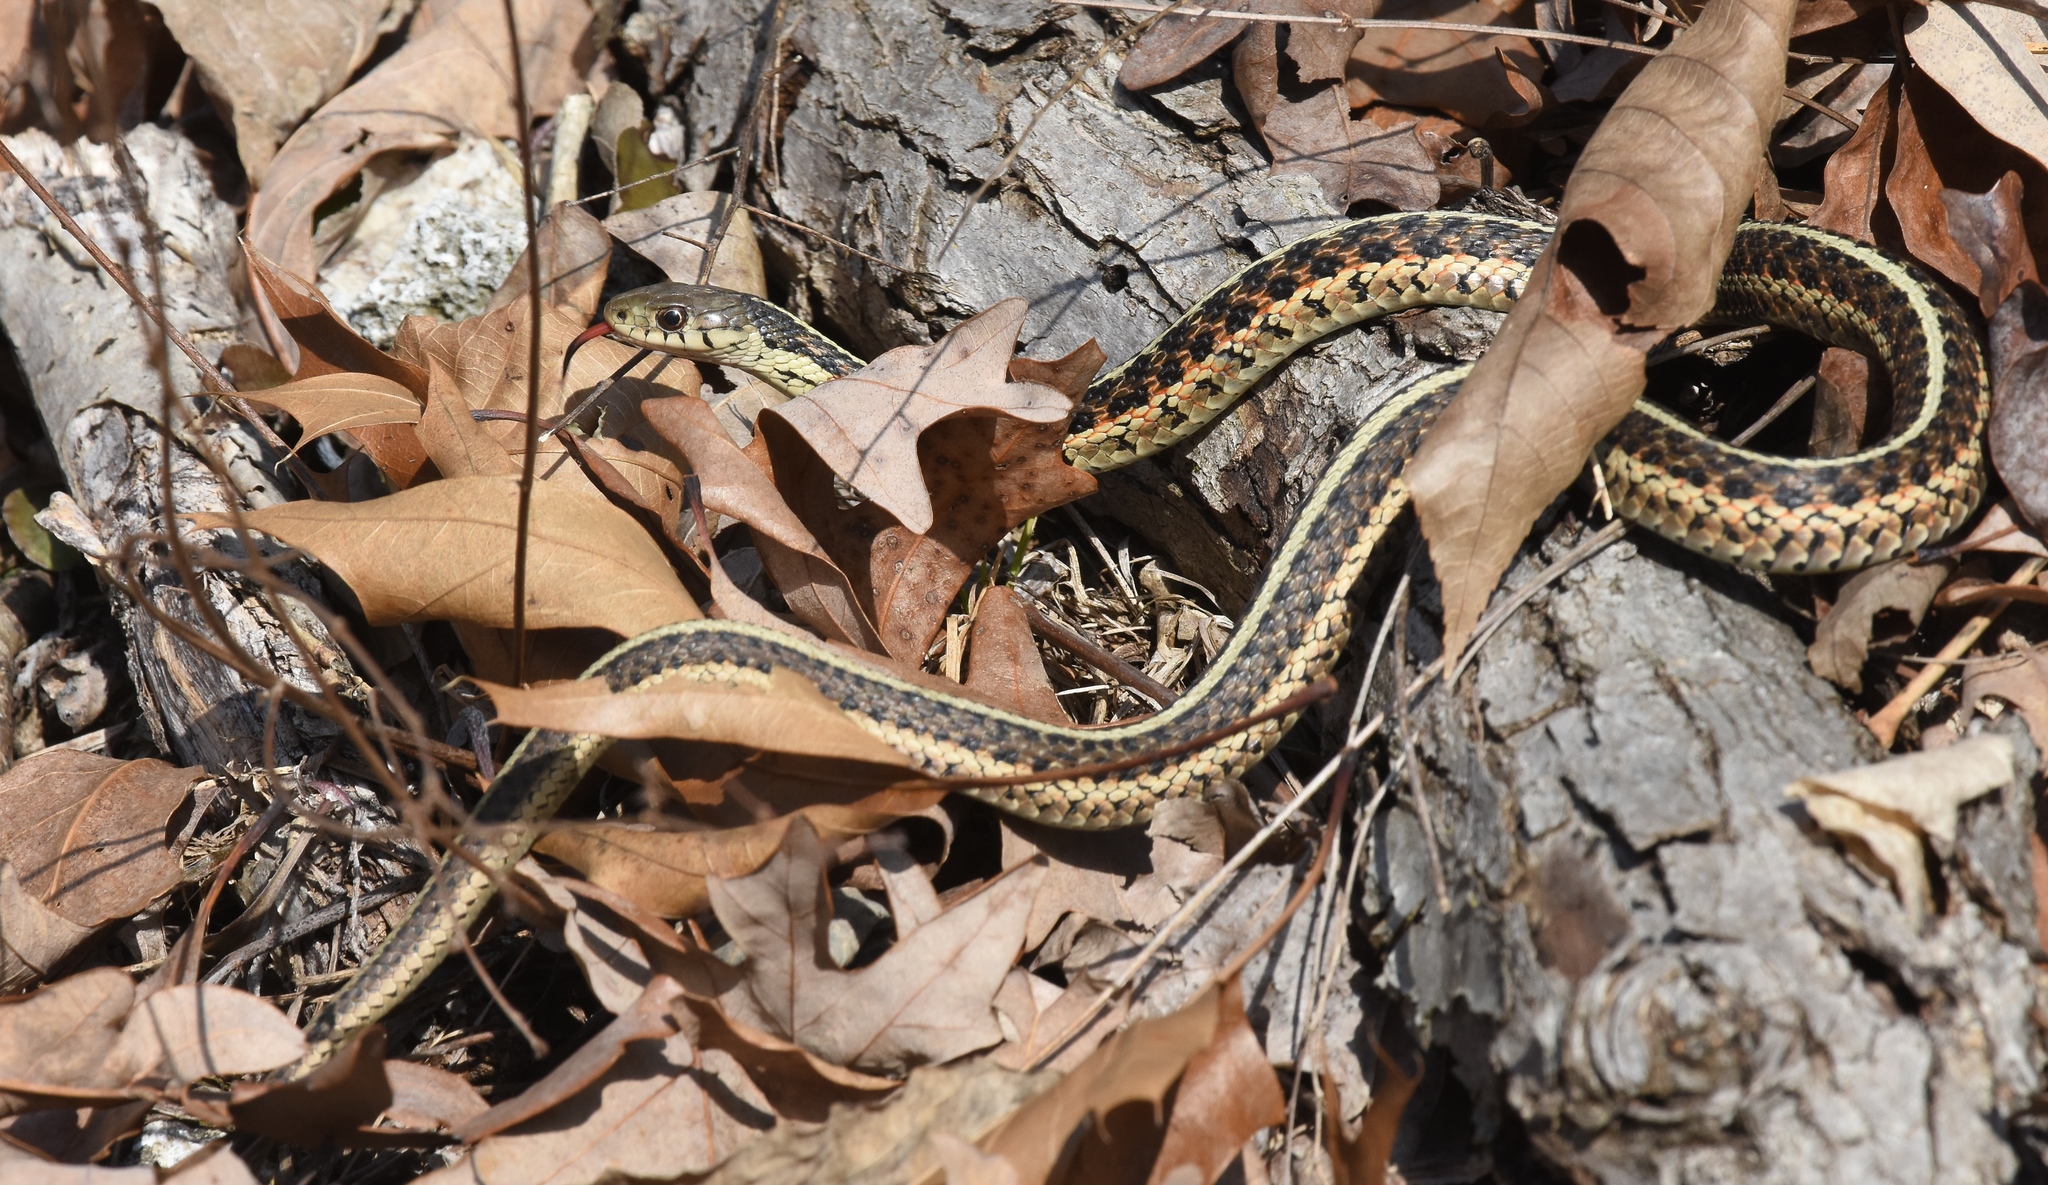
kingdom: Animalia
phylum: Chordata
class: Squamata
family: Colubridae
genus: Thamnophis
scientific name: Thamnophis sirtalis
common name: Common garter snake
